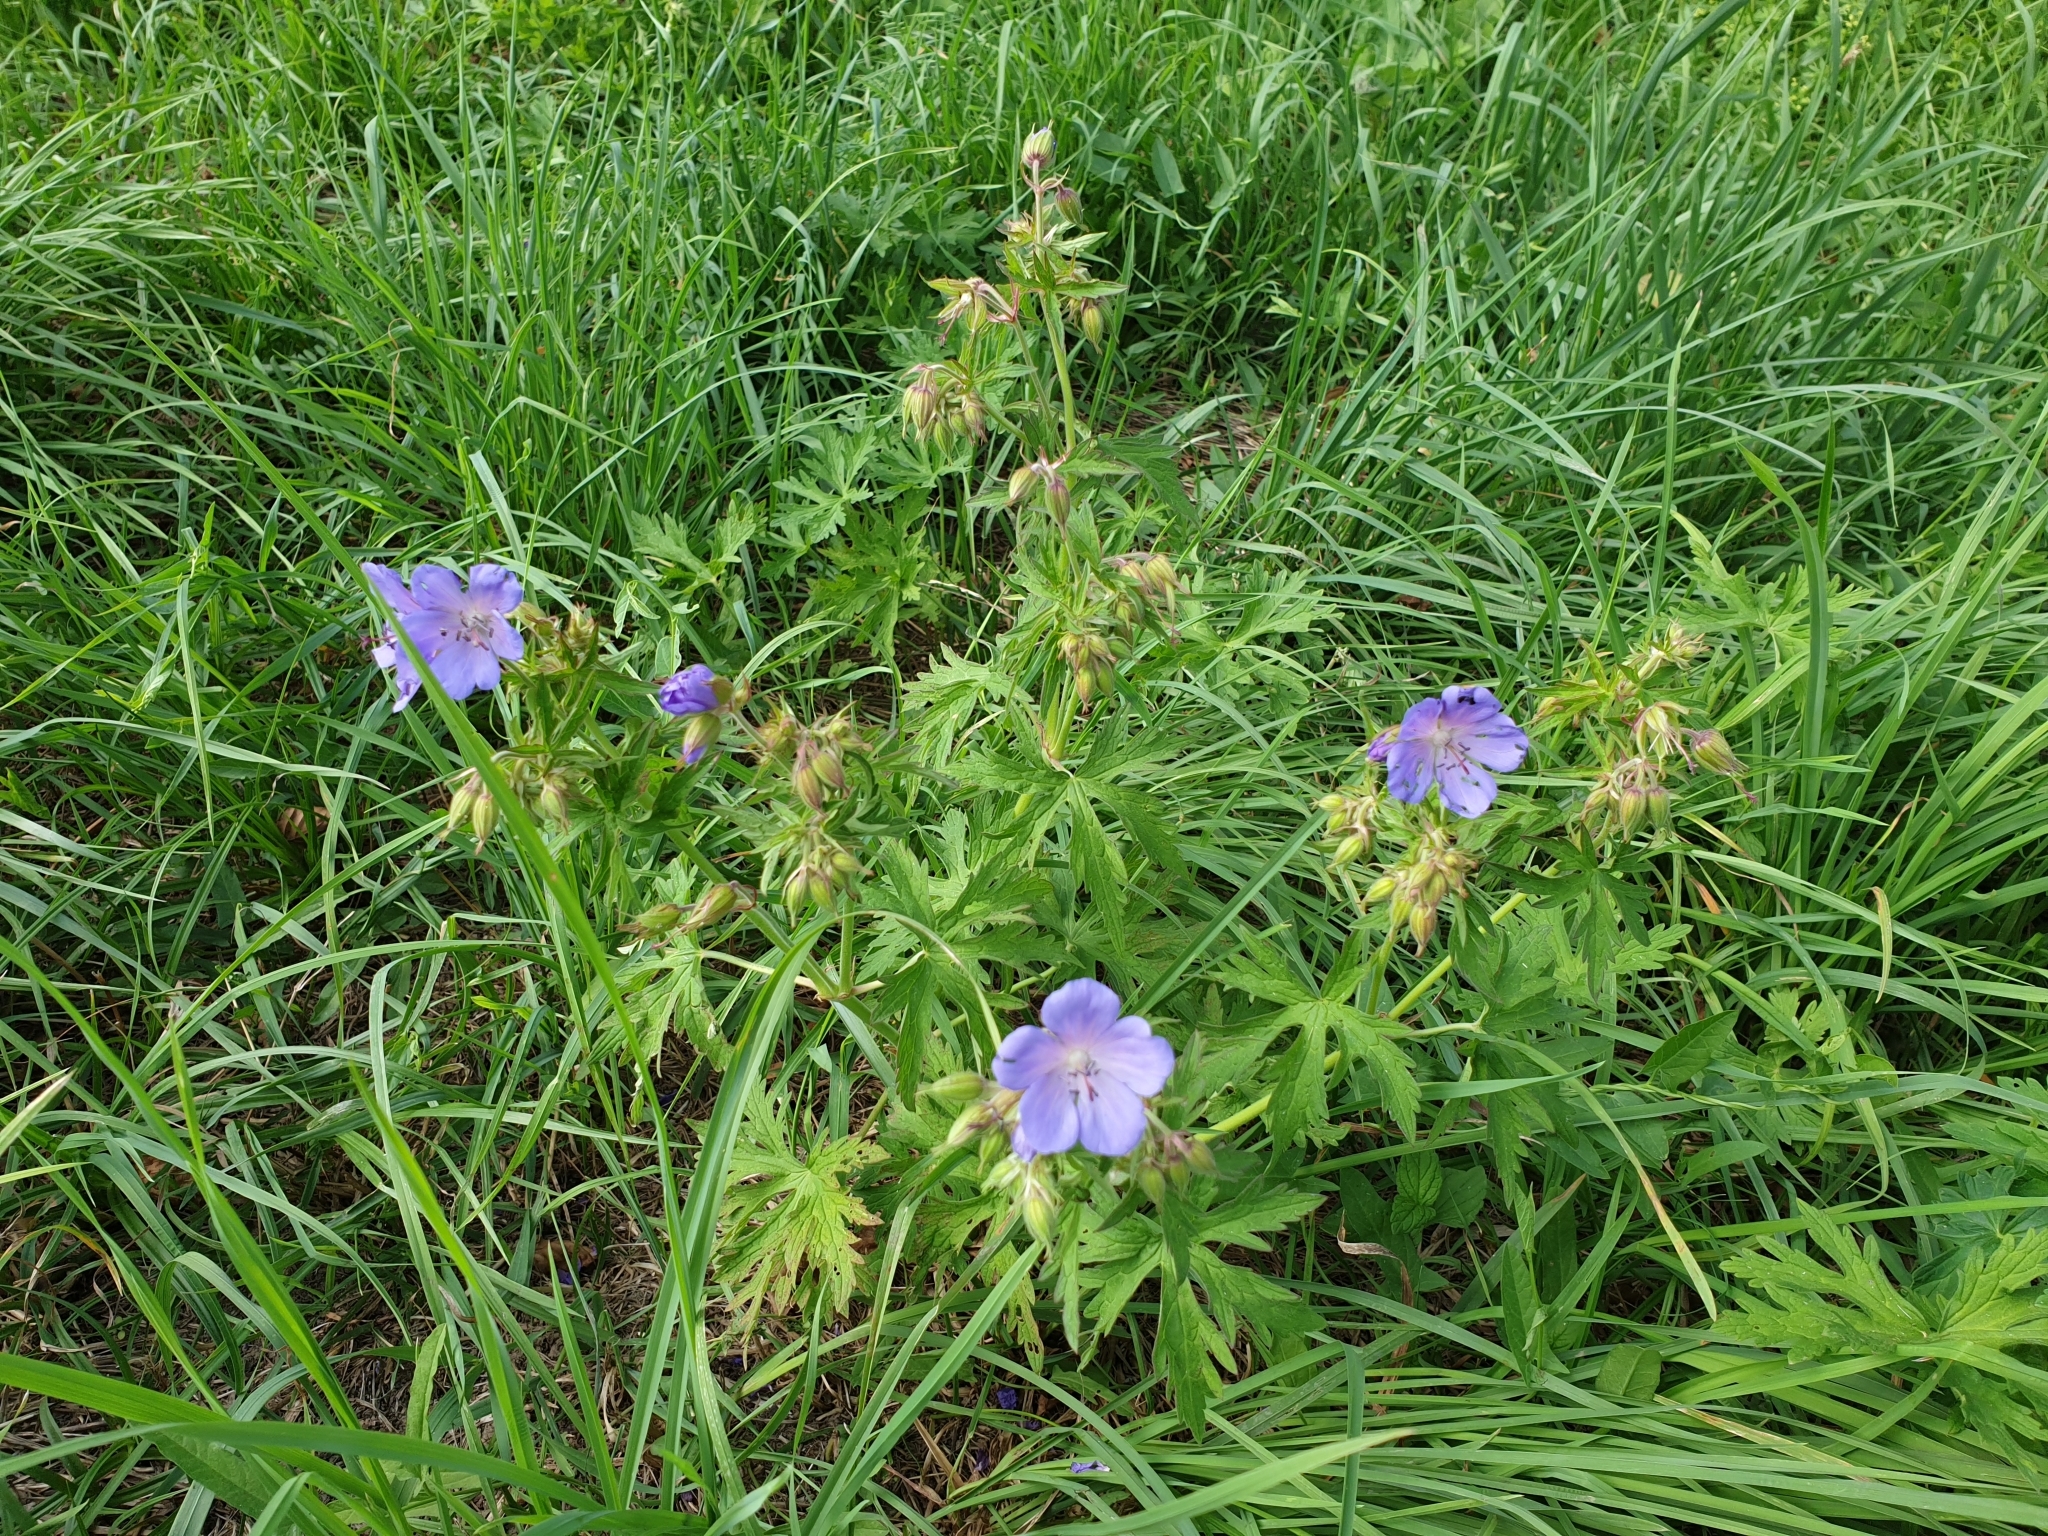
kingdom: Plantae
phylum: Tracheophyta
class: Magnoliopsida
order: Geraniales
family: Geraniaceae
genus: Geranium
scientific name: Geranium pratense
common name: Meadow crane's-bill
